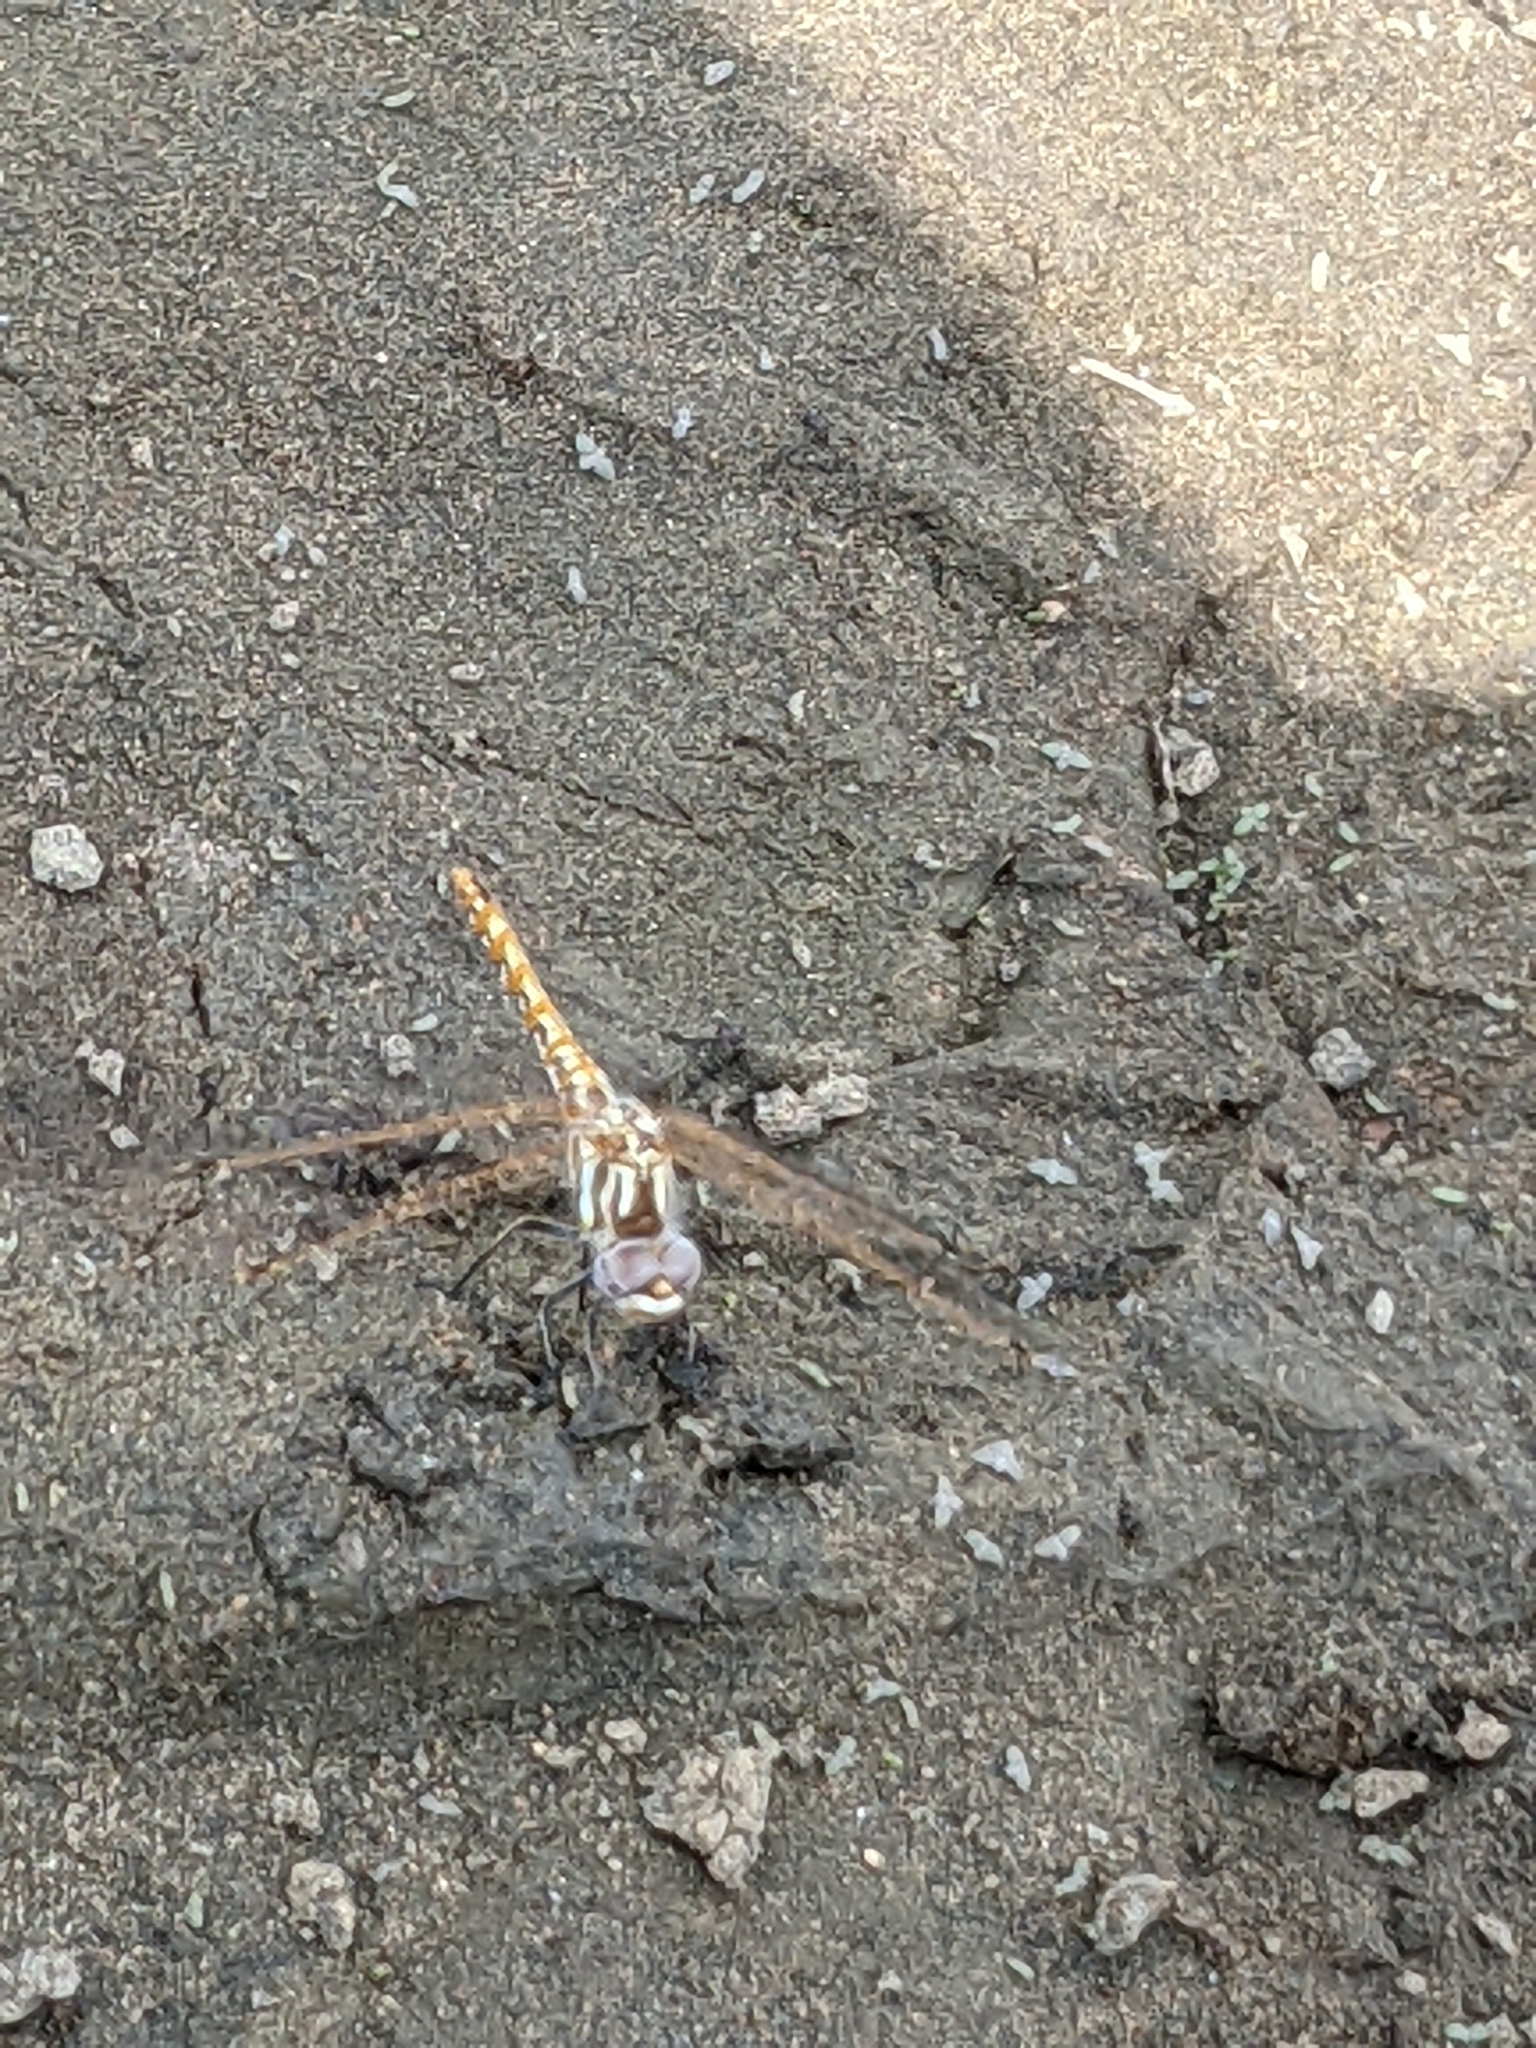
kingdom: Animalia
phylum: Arthropoda
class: Insecta
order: Odonata
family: Libellulidae
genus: Sympetrum
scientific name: Sympetrum corruptum
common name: Variegated meadowhawk
